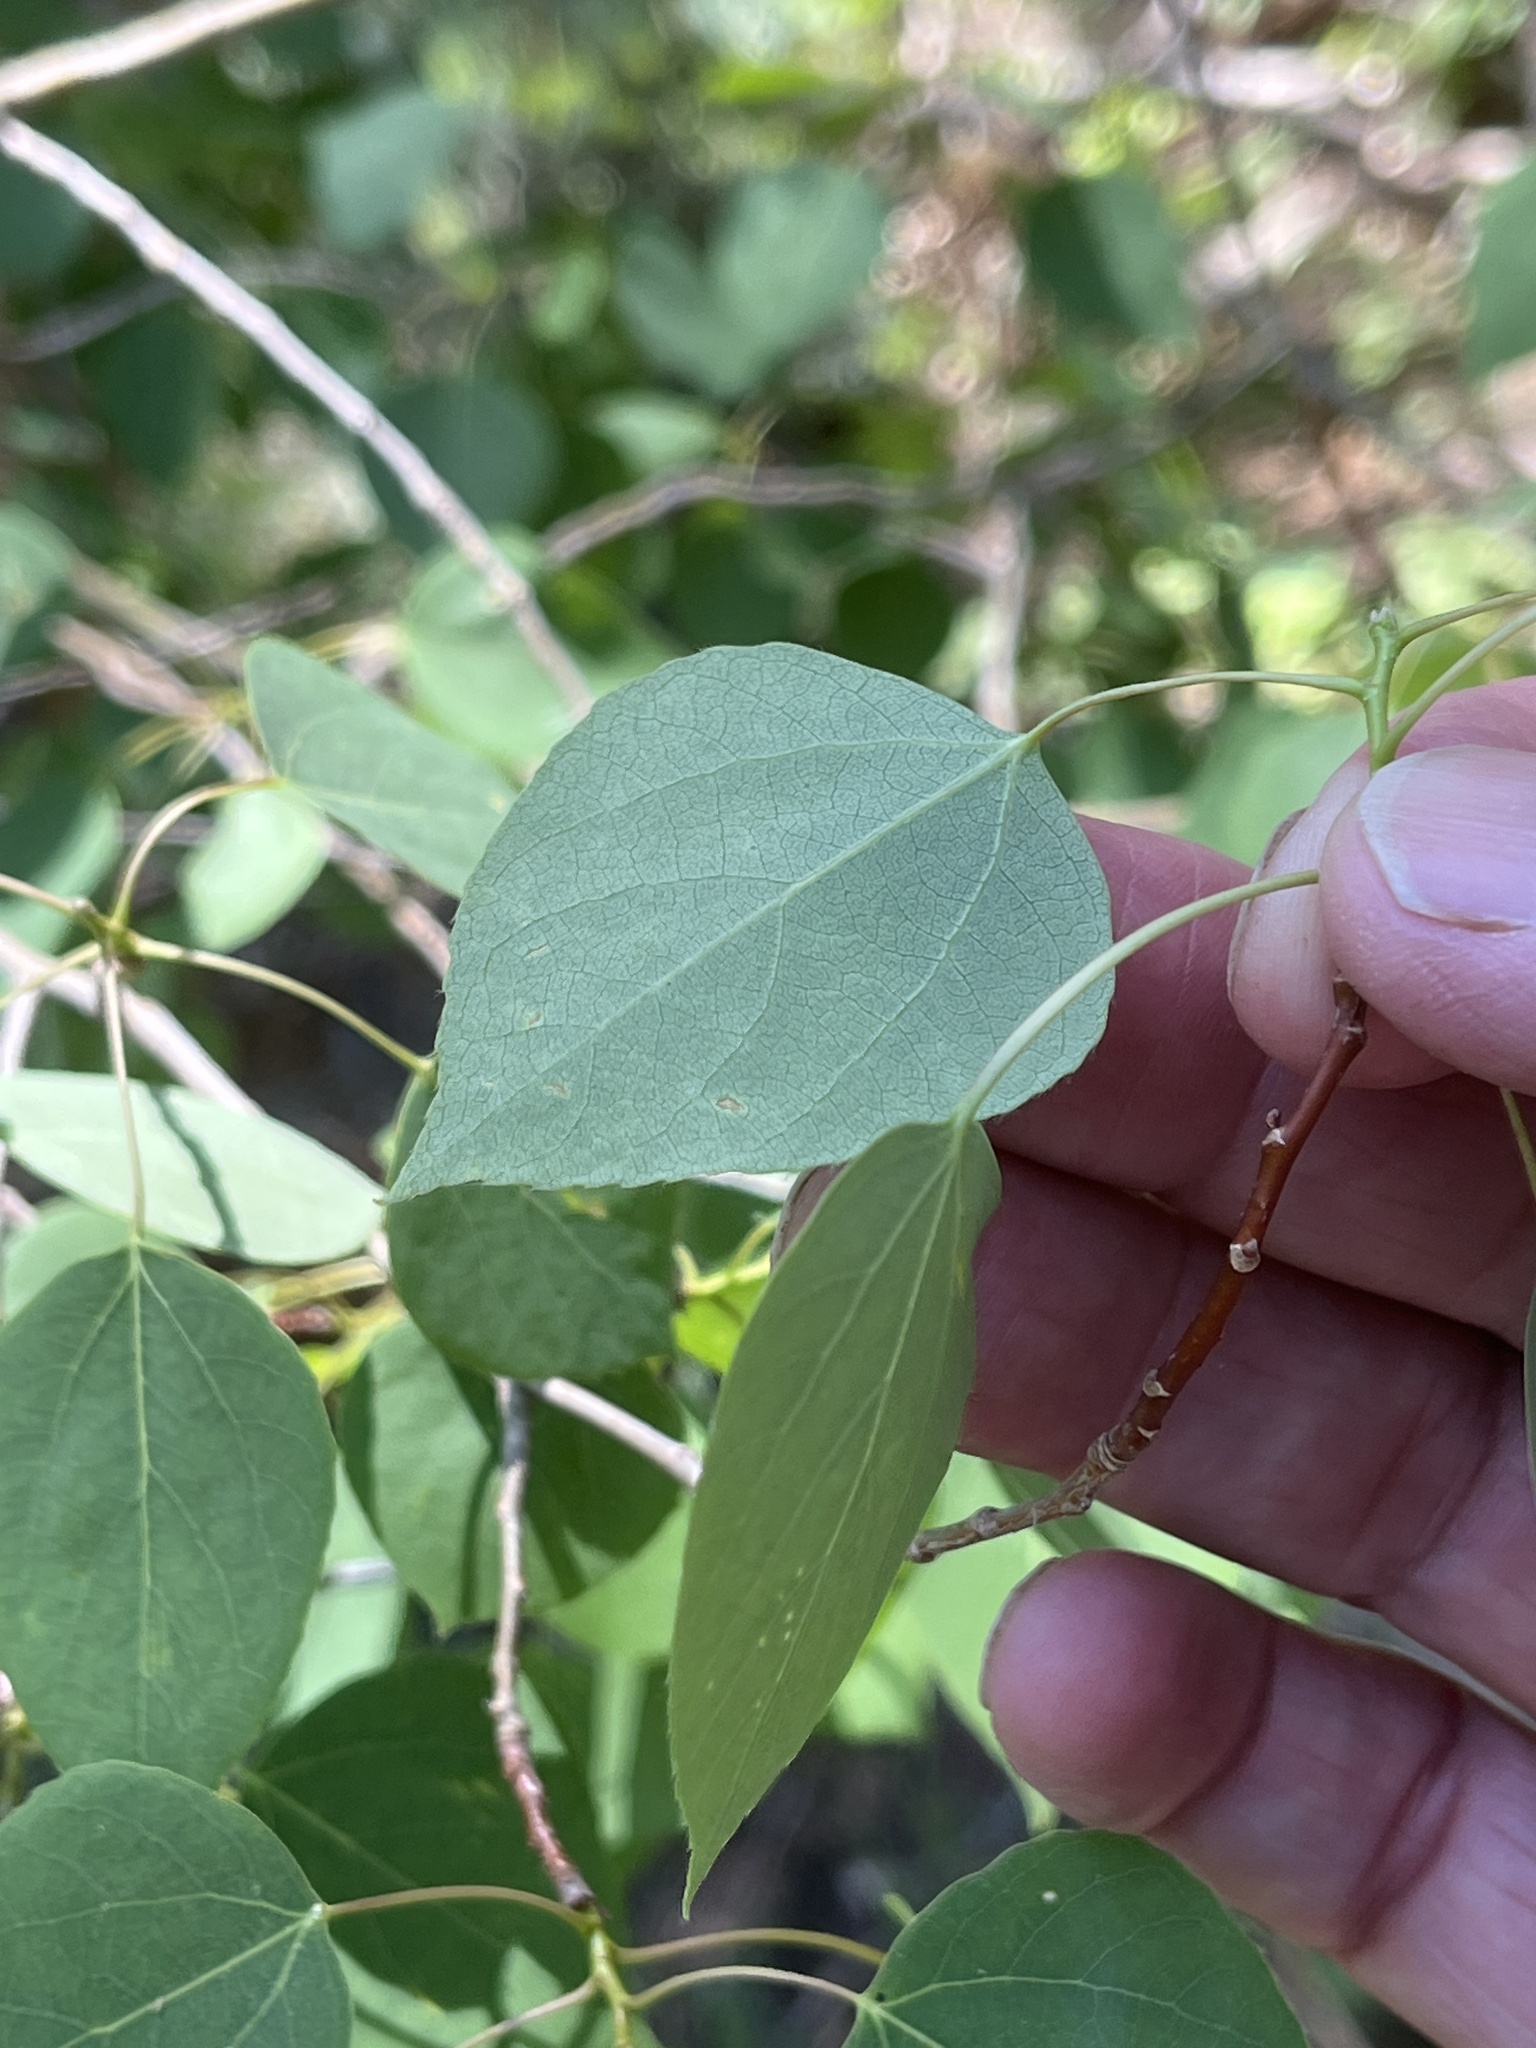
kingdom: Plantae
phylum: Tracheophyta
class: Magnoliopsida
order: Malpighiales
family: Salicaceae
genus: Populus
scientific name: Populus tremuloides
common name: Quaking aspen
